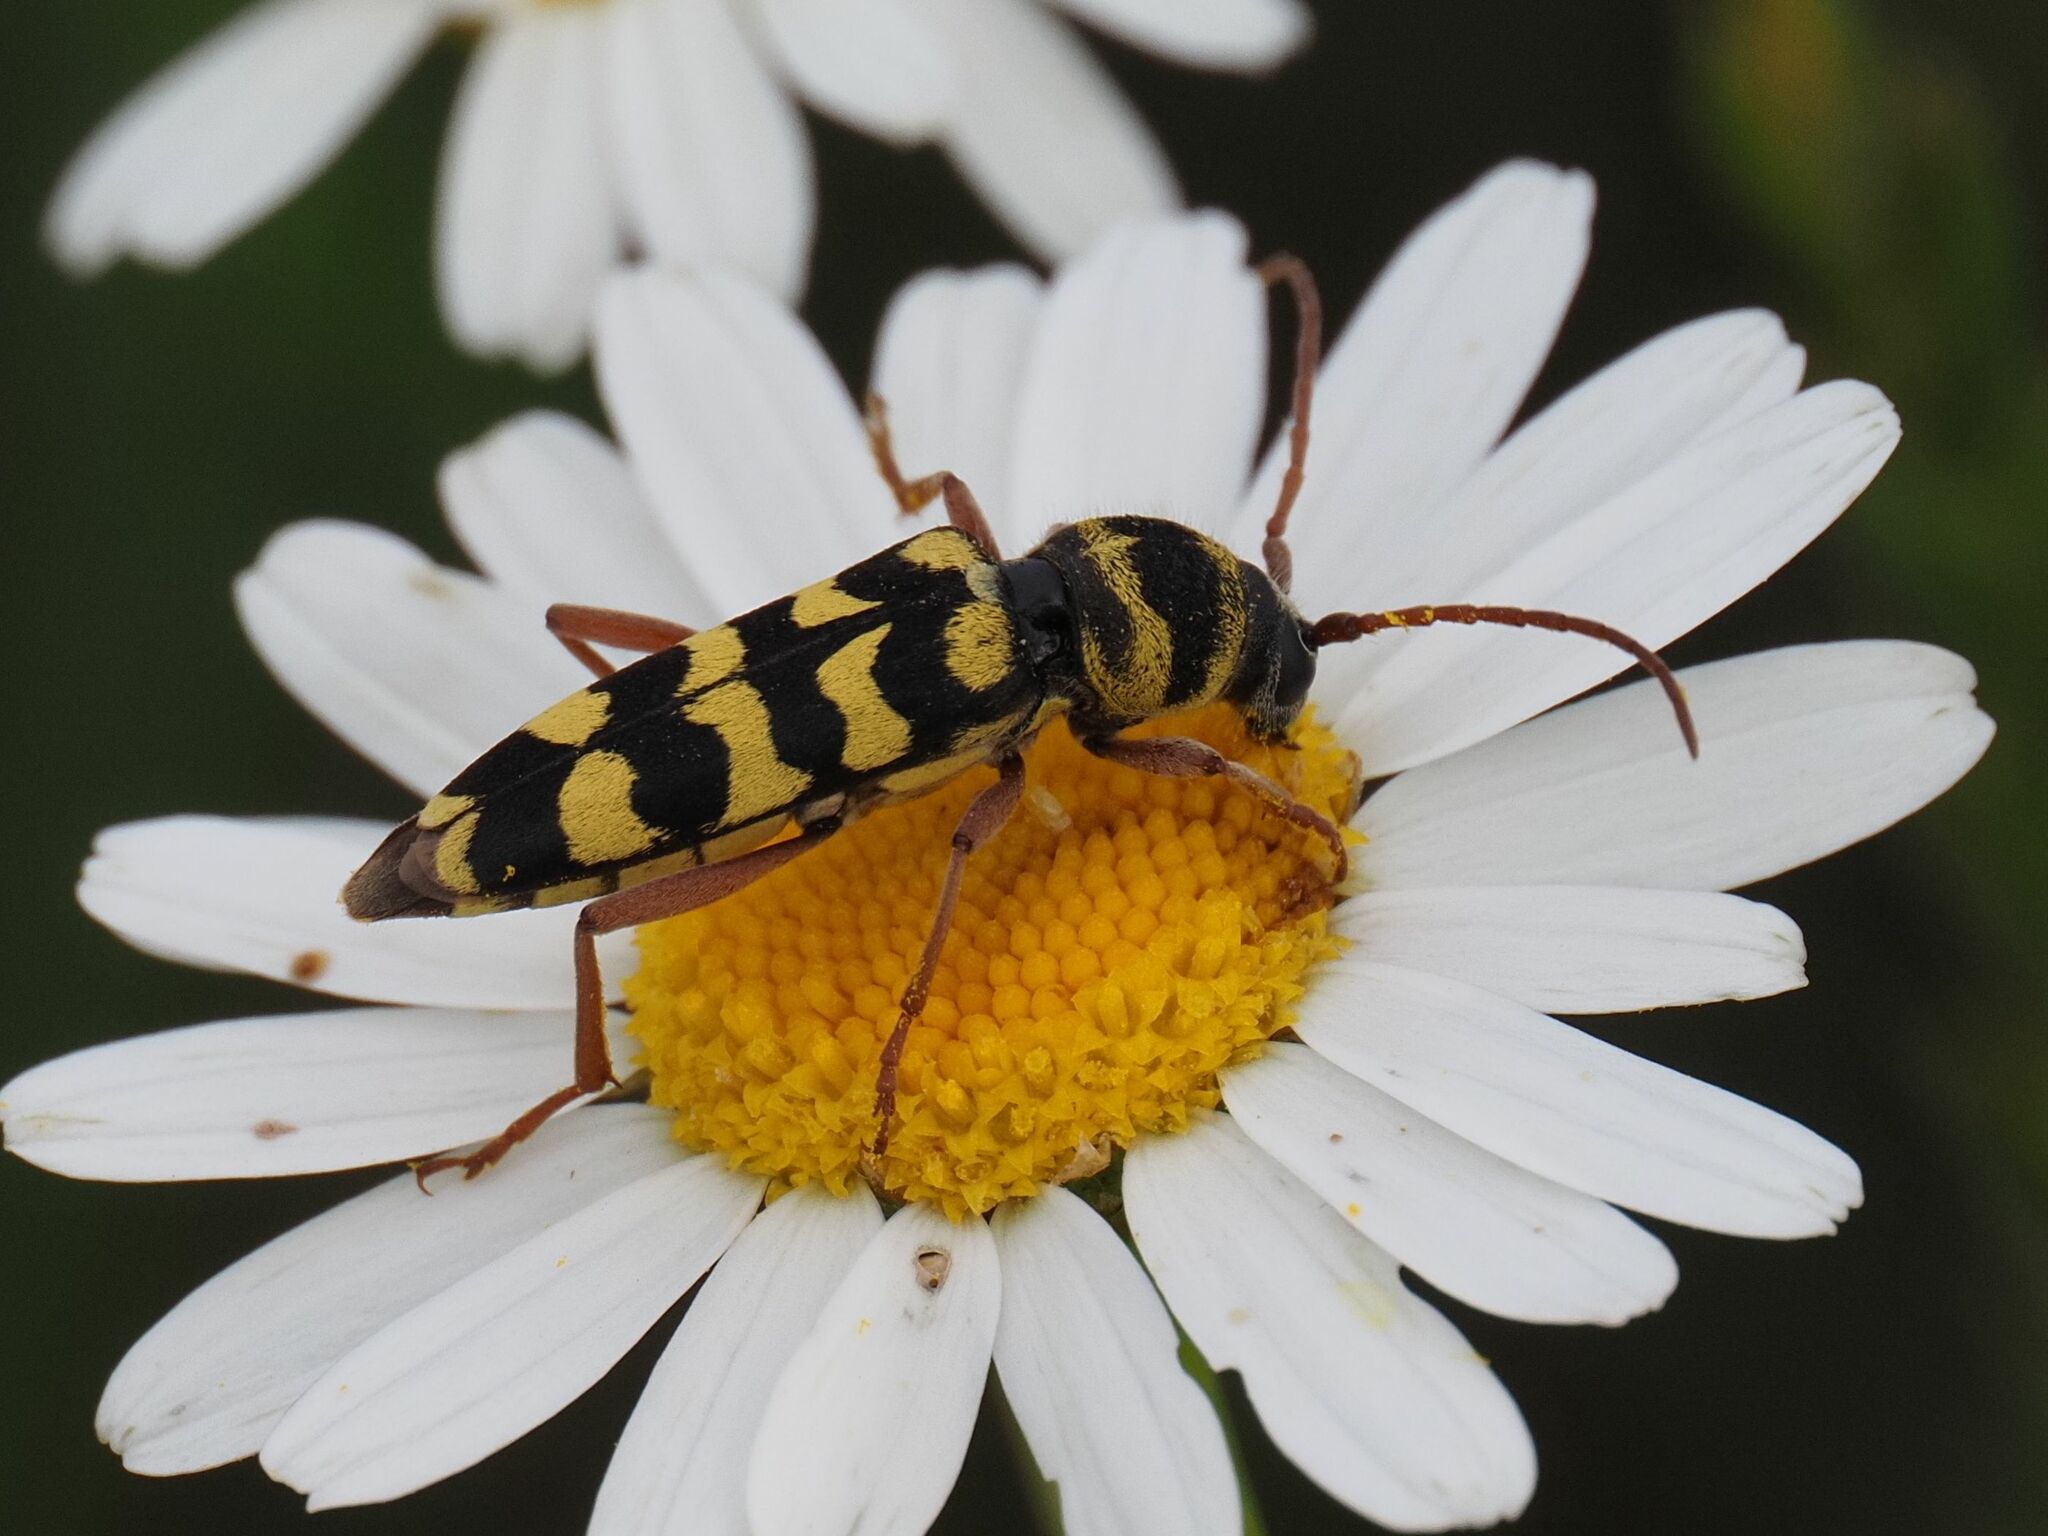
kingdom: Animalia
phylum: Arthropoda
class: Insecta
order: Coleoptera
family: Cerambycidae
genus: Plagionotus
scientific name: Plagionotus floralis
